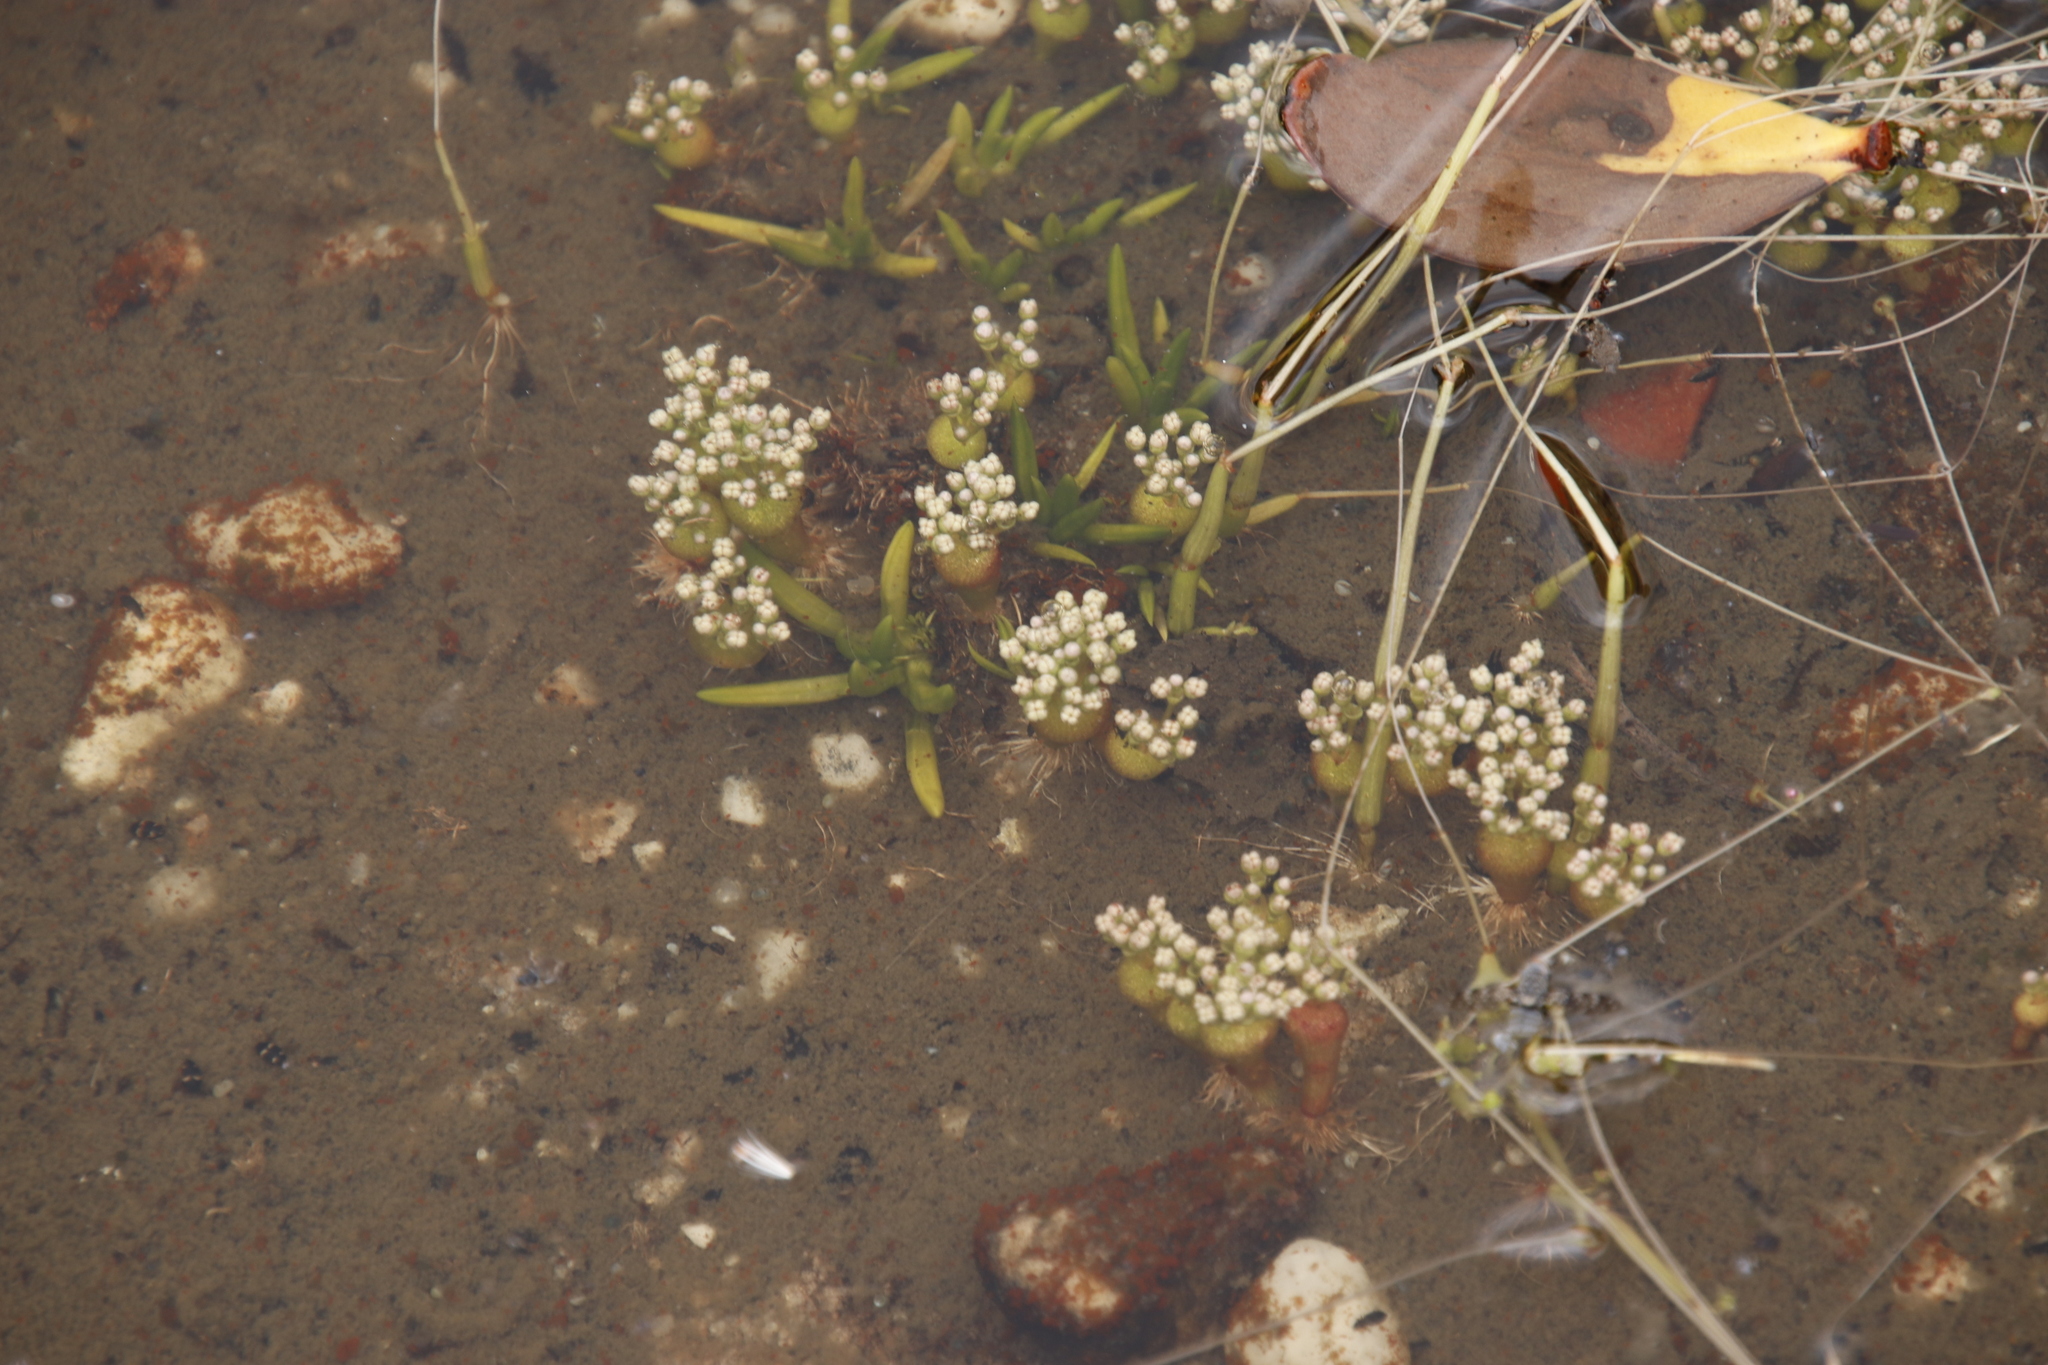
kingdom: Plantae
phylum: Tracheophyta
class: Magnoliopsida
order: Saxifragales
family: Crassulaceae
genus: Crassula
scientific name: Crassula aphylla
